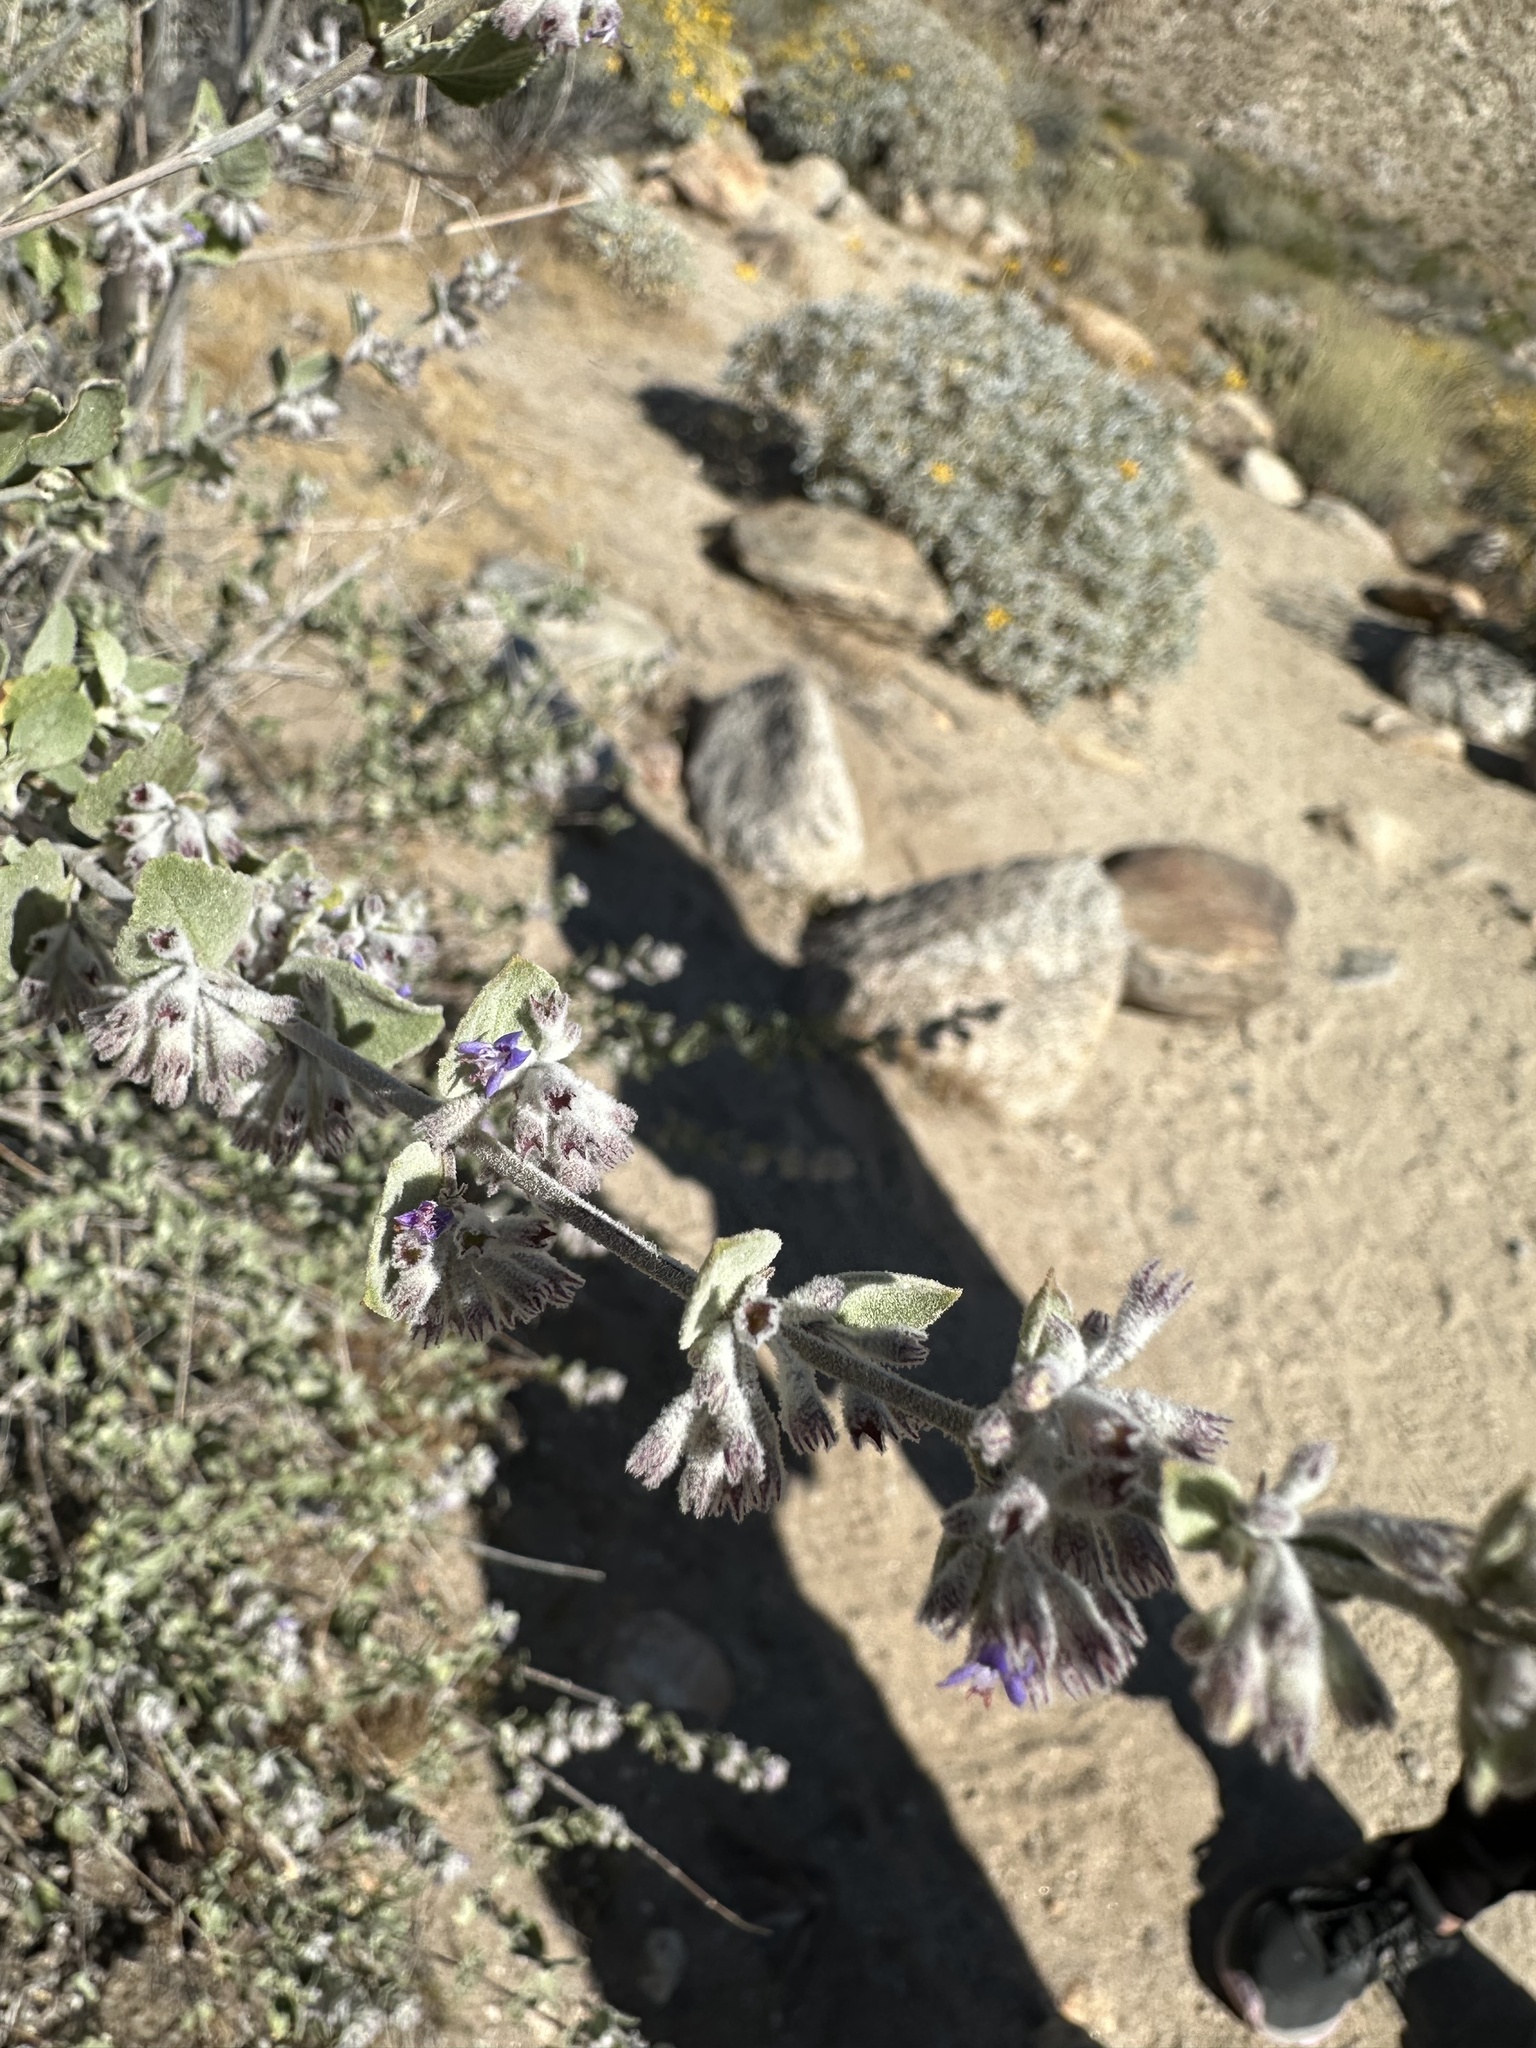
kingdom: Plantae
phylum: Tracheophyta
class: Magnoliopsida
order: Lamiales
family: Lamiaceae
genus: Condea
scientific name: Condea emoryi
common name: Chia
